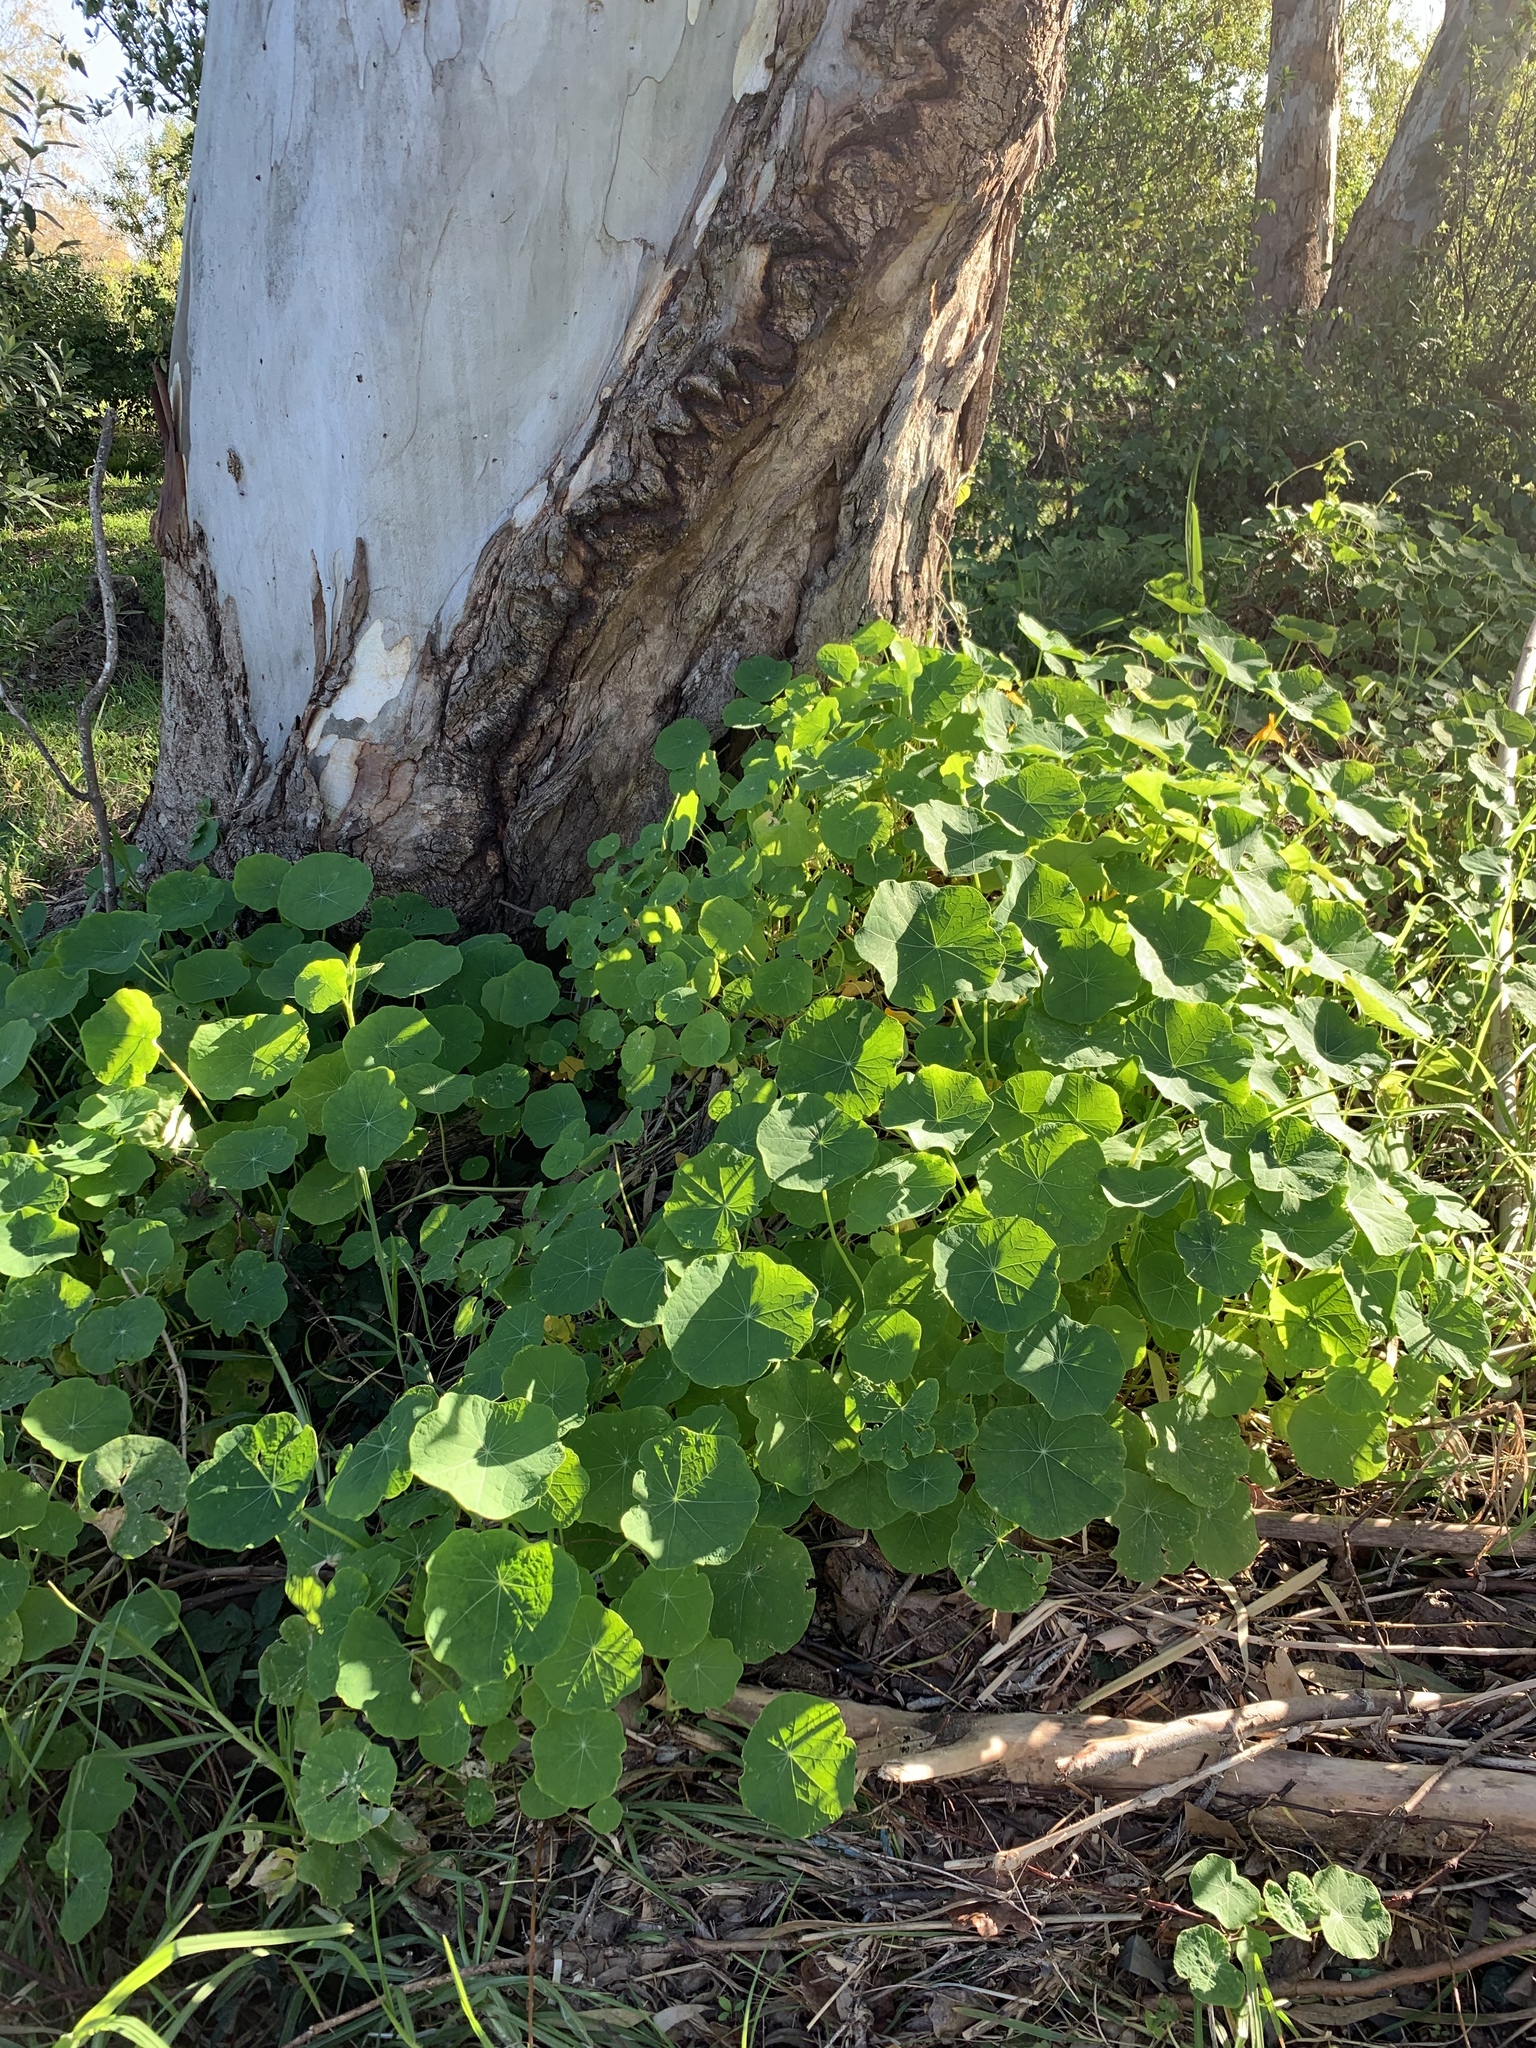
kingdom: Plantae
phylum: Tracheophyta
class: Magnoliopsida
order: Brassicales
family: Tropaeolaceae
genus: Tropaeolum
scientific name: Tropaeolum majus
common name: Nasturtium
